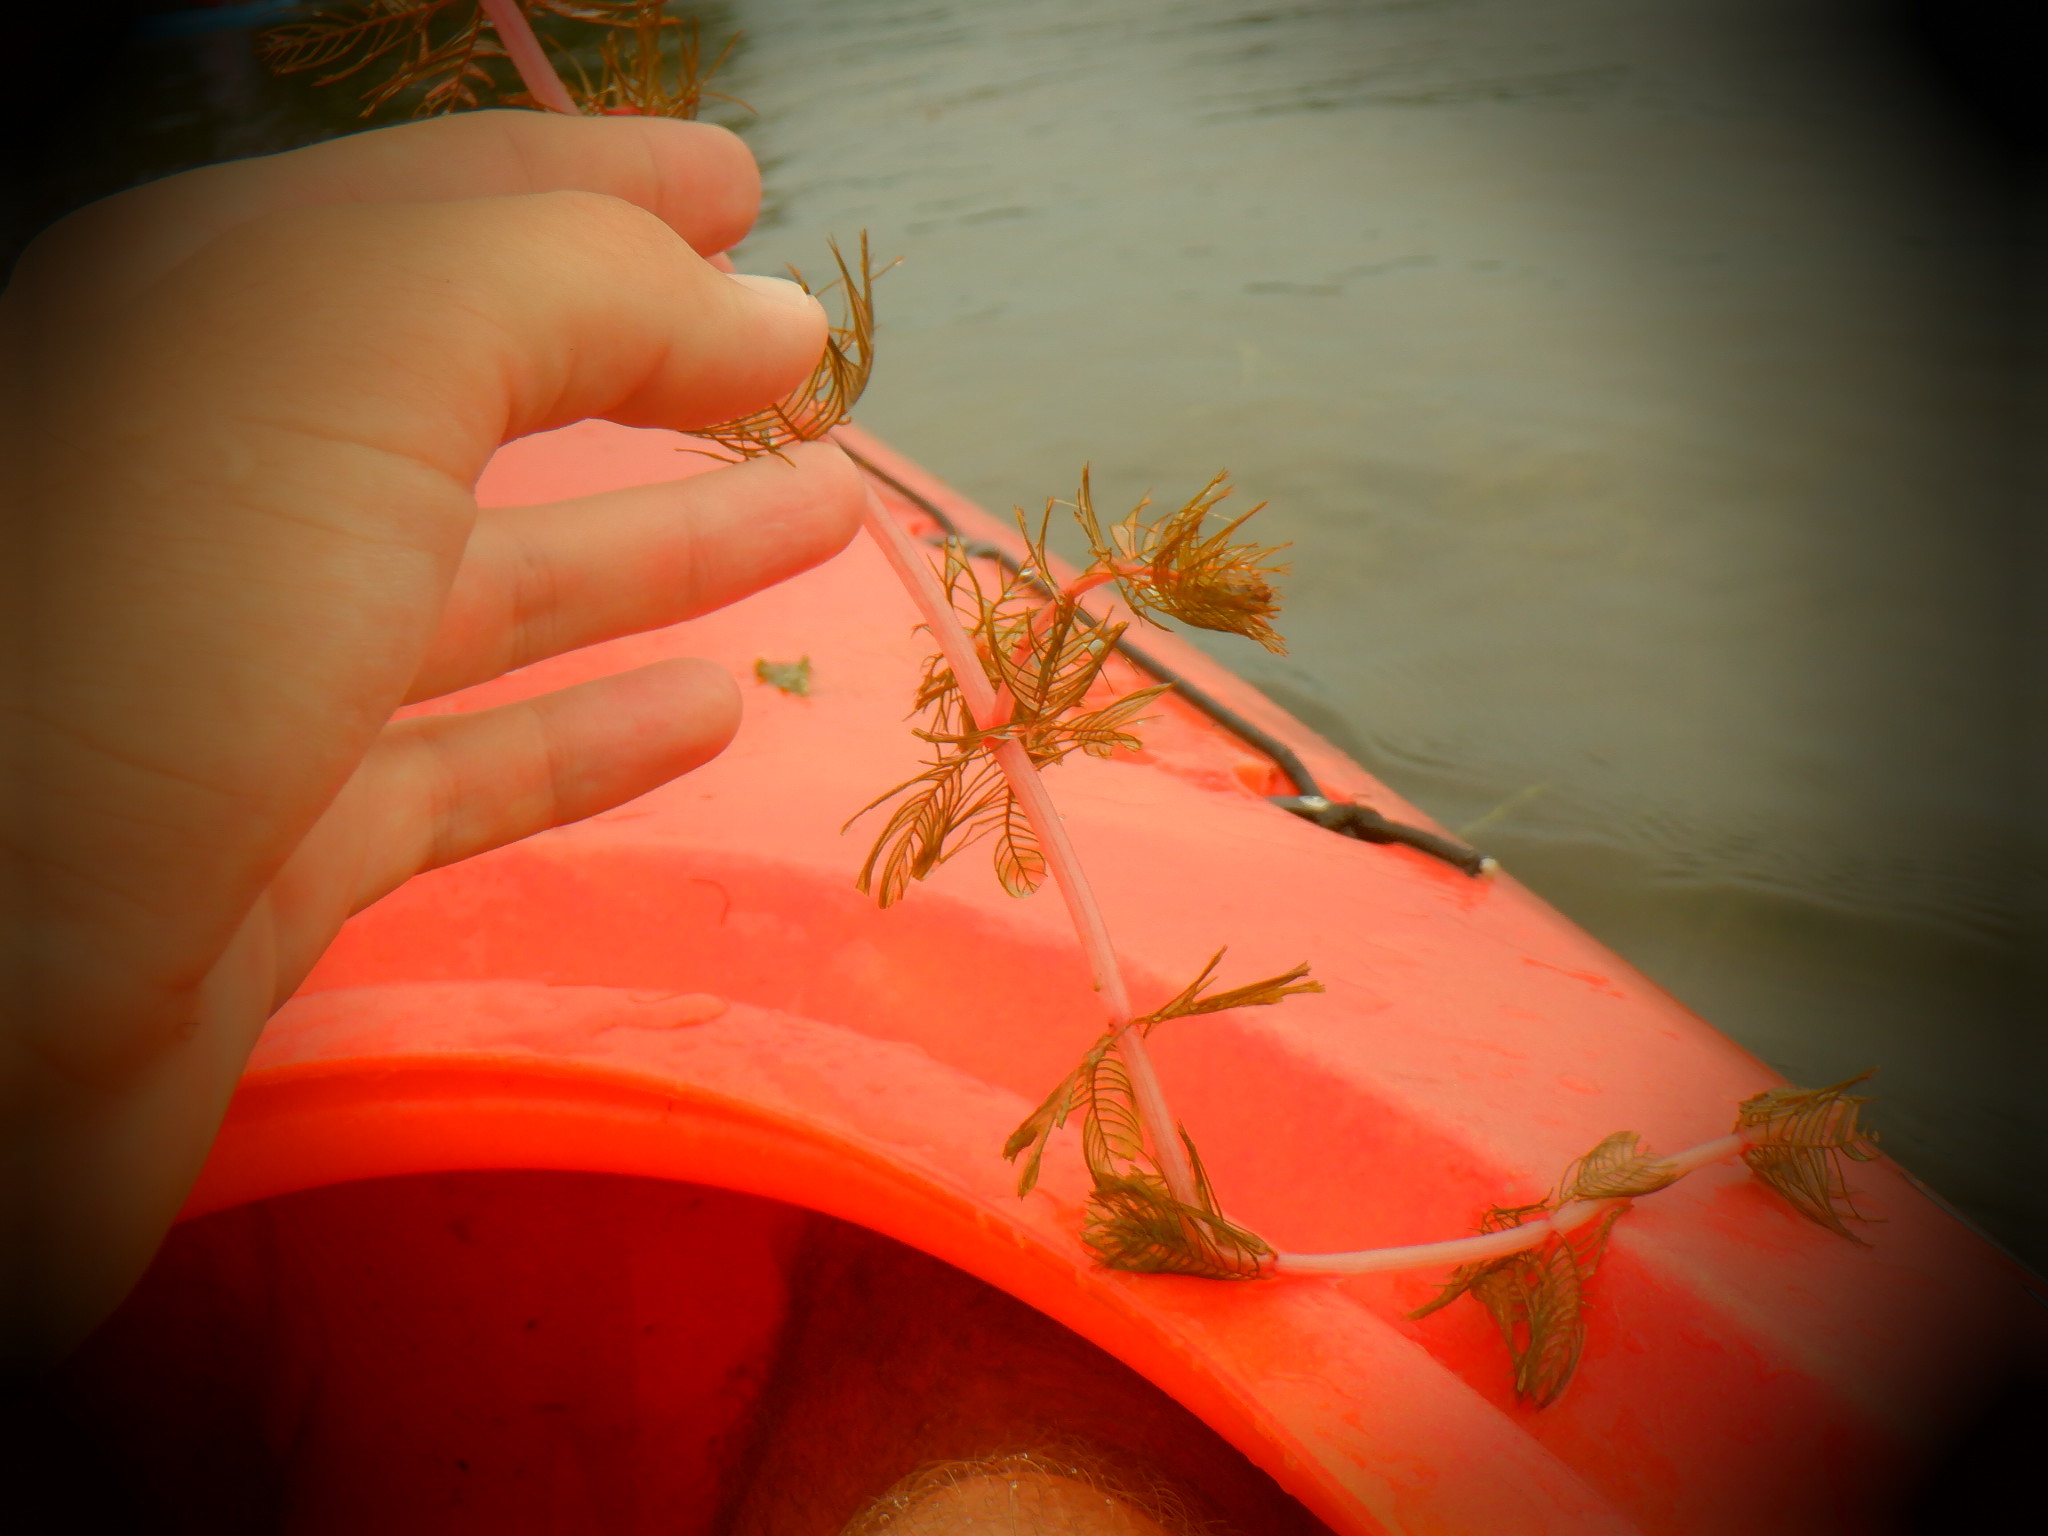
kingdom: Plantae
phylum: Tracheophyta
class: Magnoliopsida
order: Saxifragales
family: Haloragaceae
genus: Myriophyllum
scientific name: Myriophyllum spicatum
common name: Spiked water-milfoil
